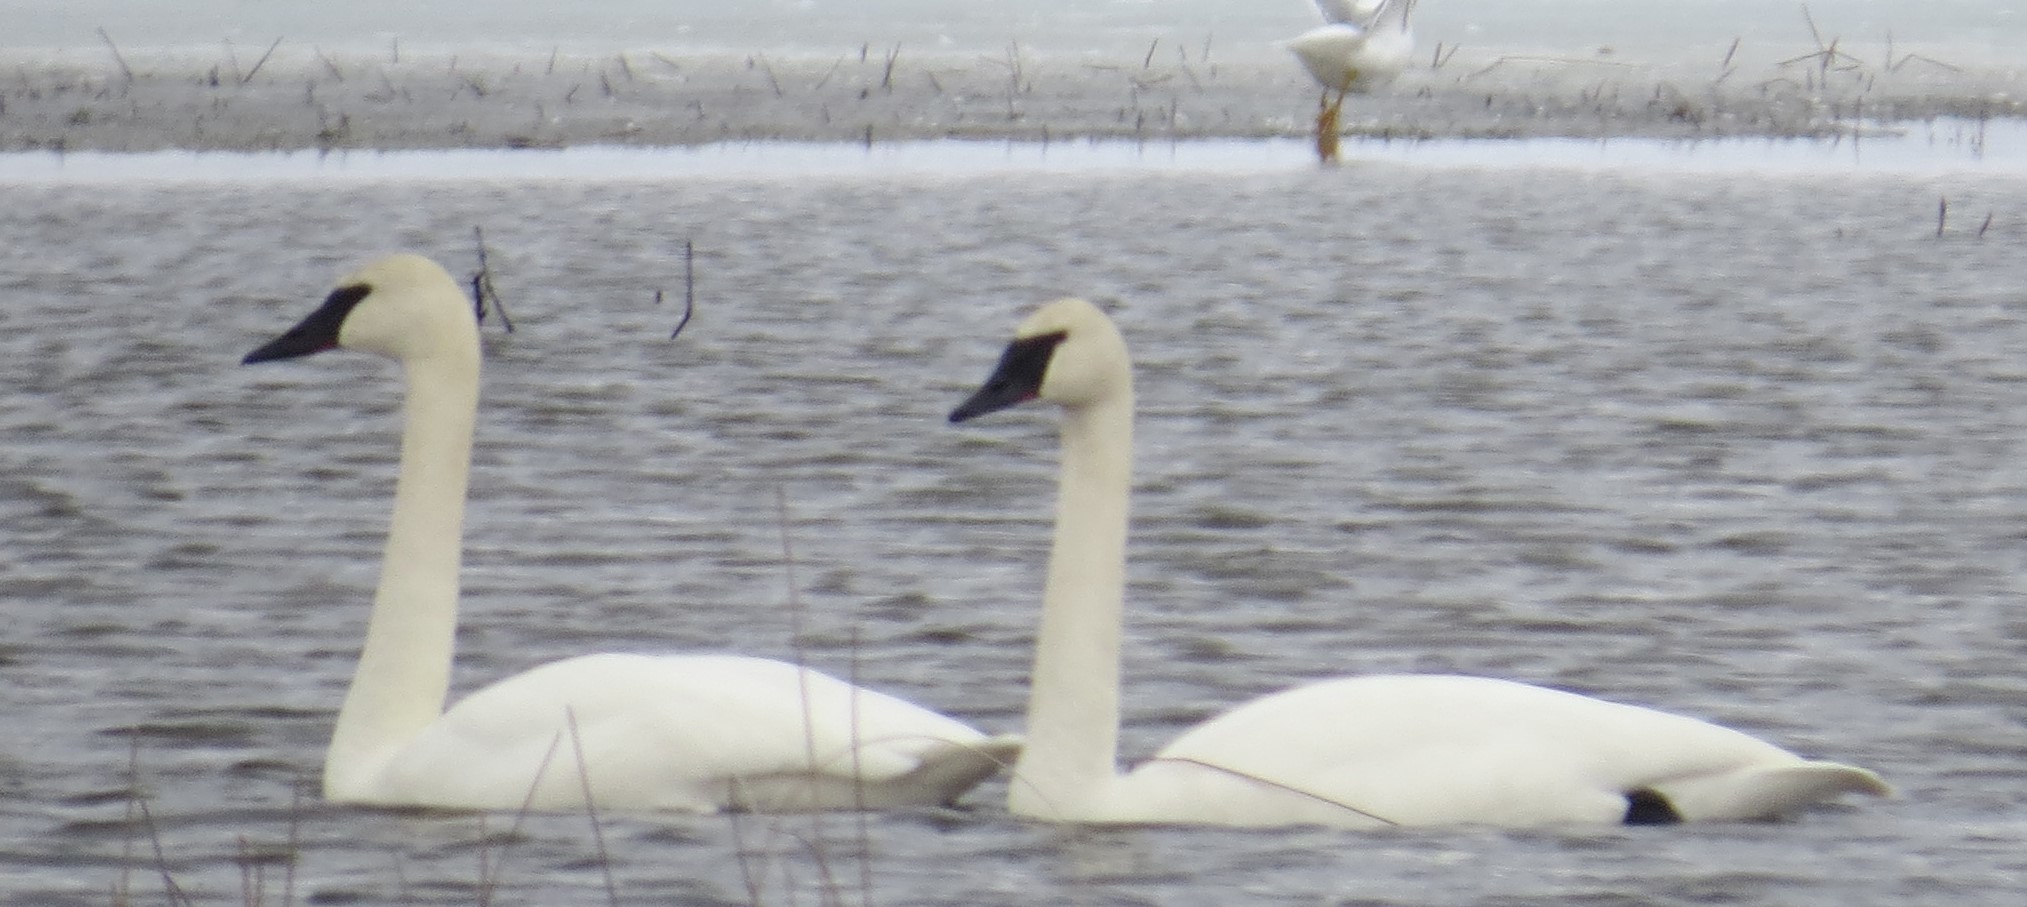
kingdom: Animalia
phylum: Chordata
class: Aves
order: Anseriformes
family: Anatidae
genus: Cygnus
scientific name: Cygnus buccinator
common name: Trumpeter swan
